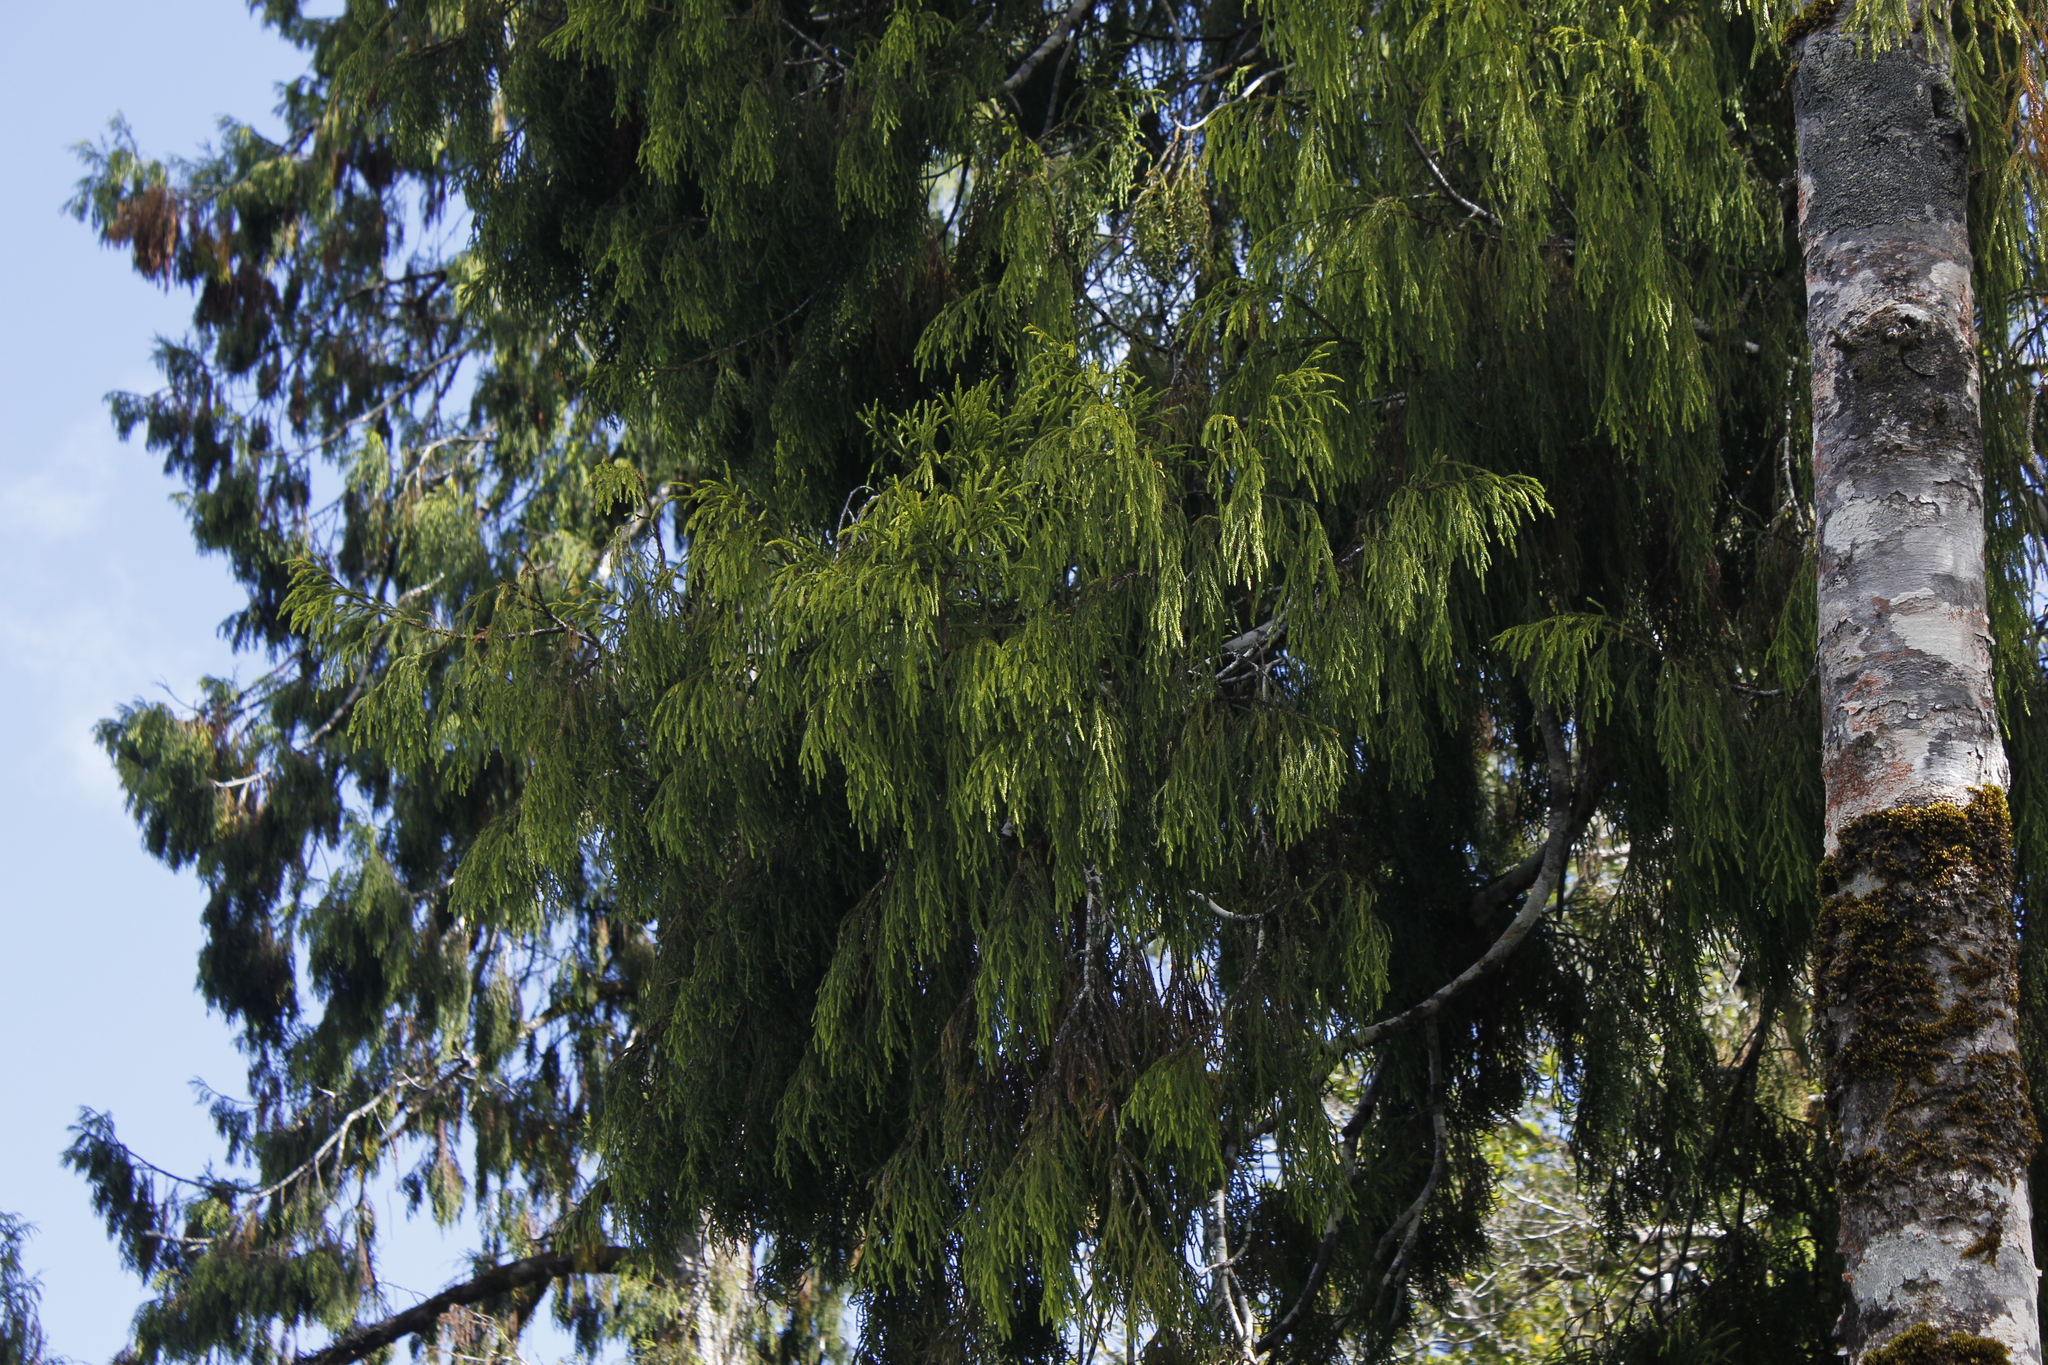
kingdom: Plantae
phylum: Tracheophyta
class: Pinopsida
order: Pinales
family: Podocarpaceae
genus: Dacrydium
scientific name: Dacrydium cupressinum
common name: Red pine
